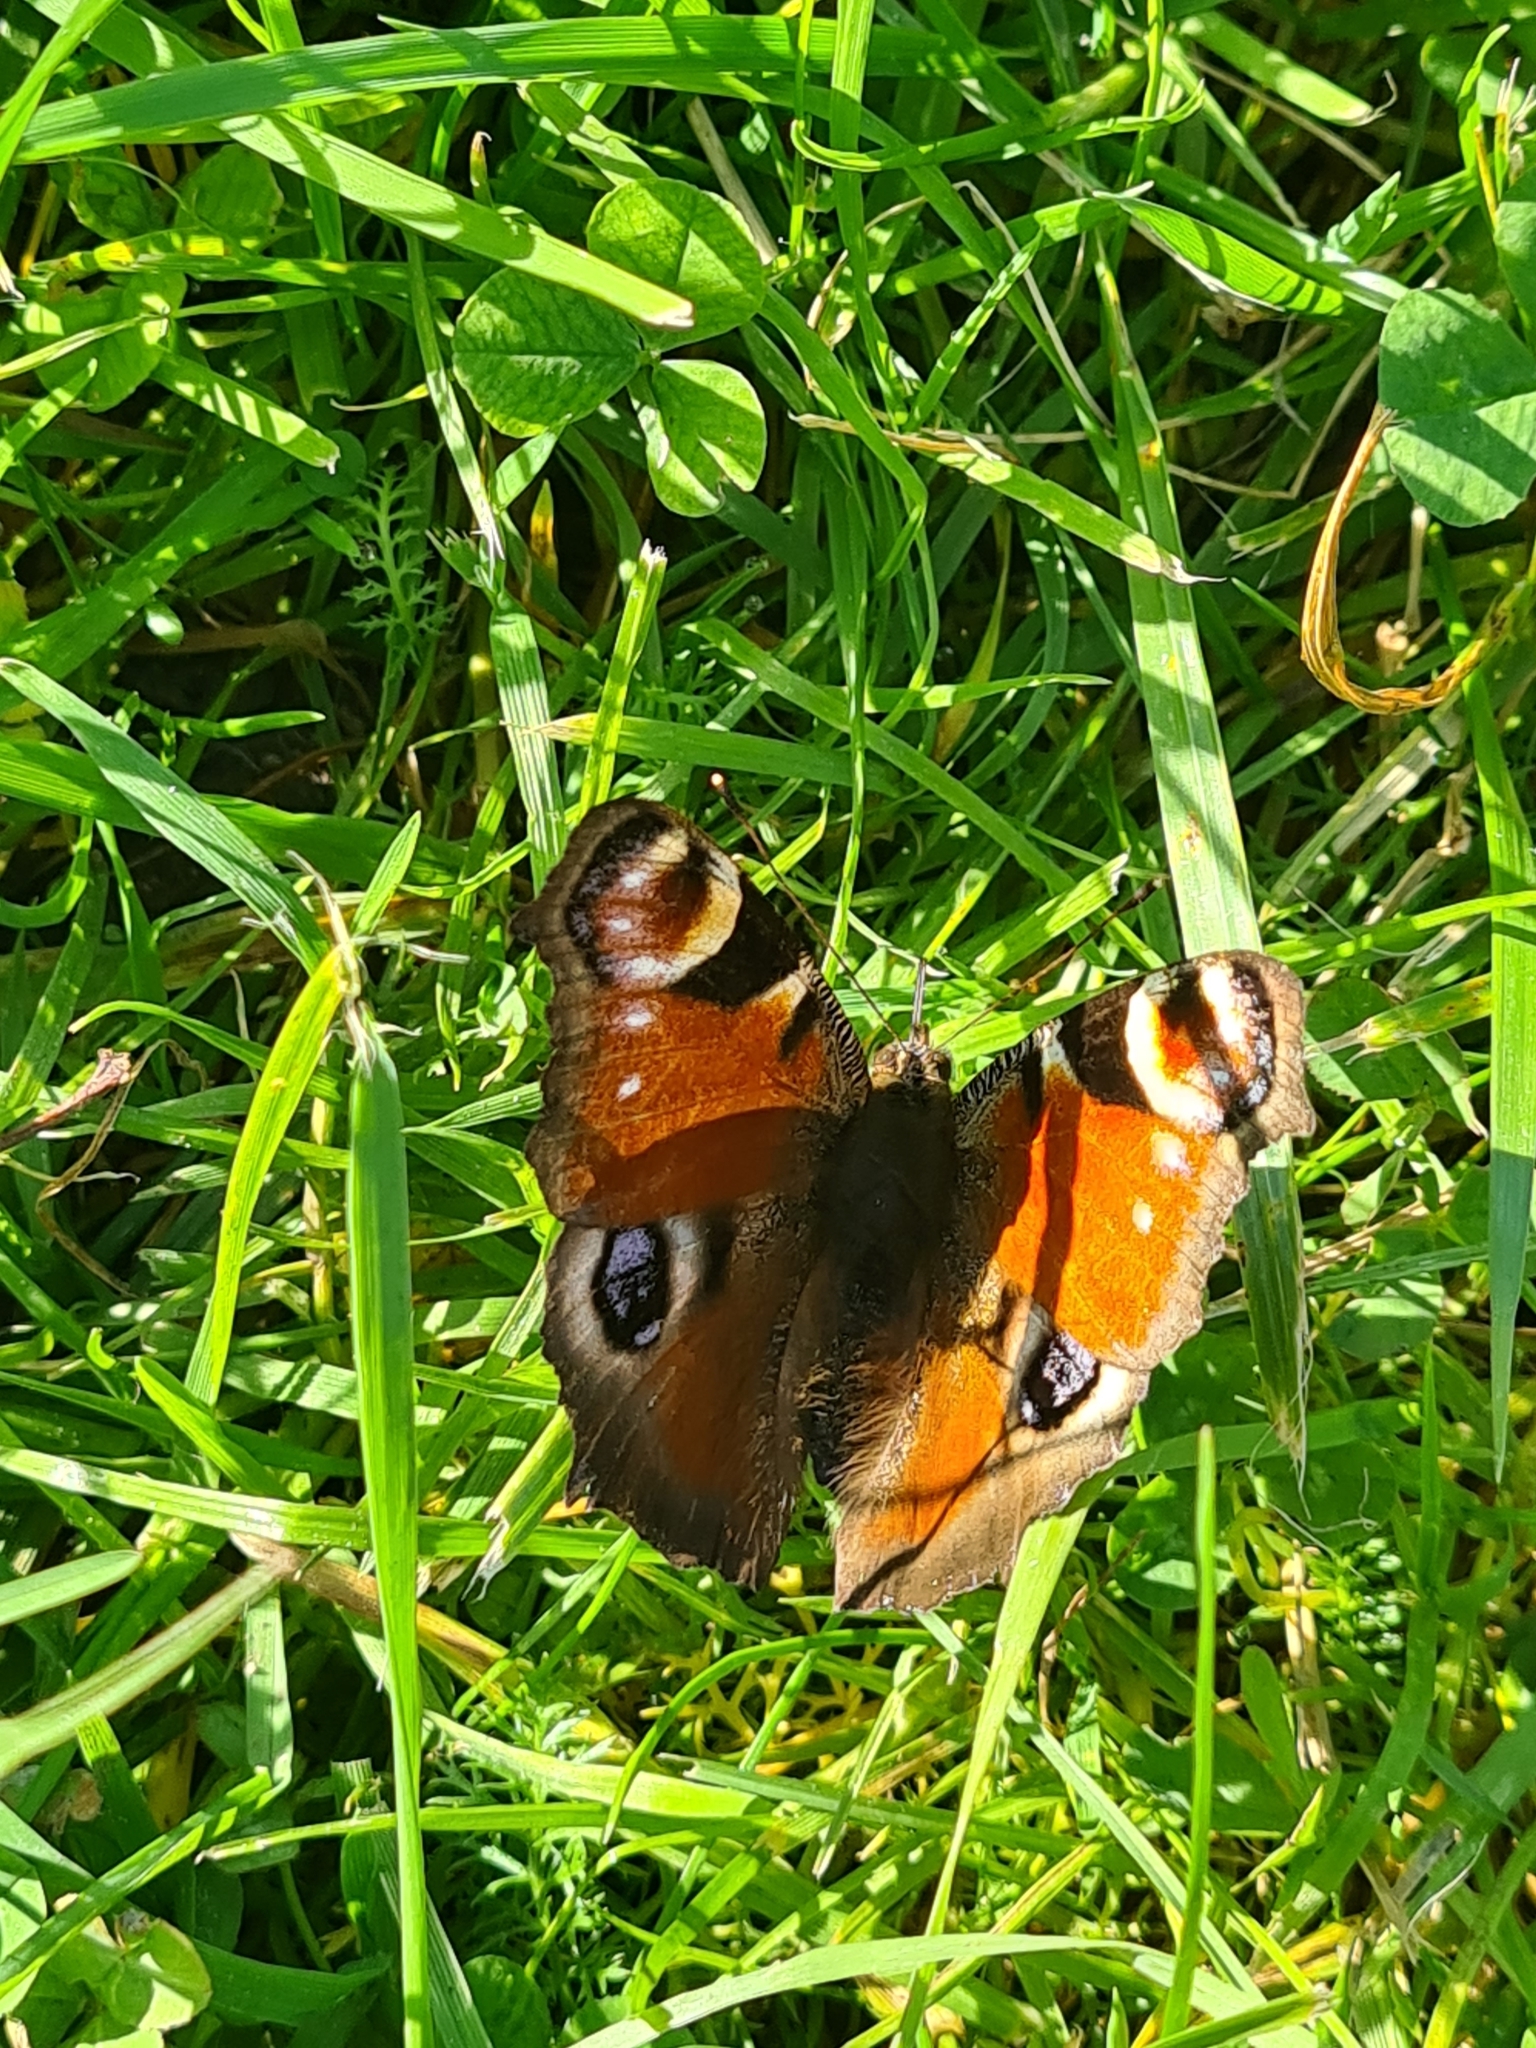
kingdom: Animalia
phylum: Arthropoda
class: Insecta
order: Lepidoptera
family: Nymphalidae
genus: Aglais
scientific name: Aglais io
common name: Peacock
